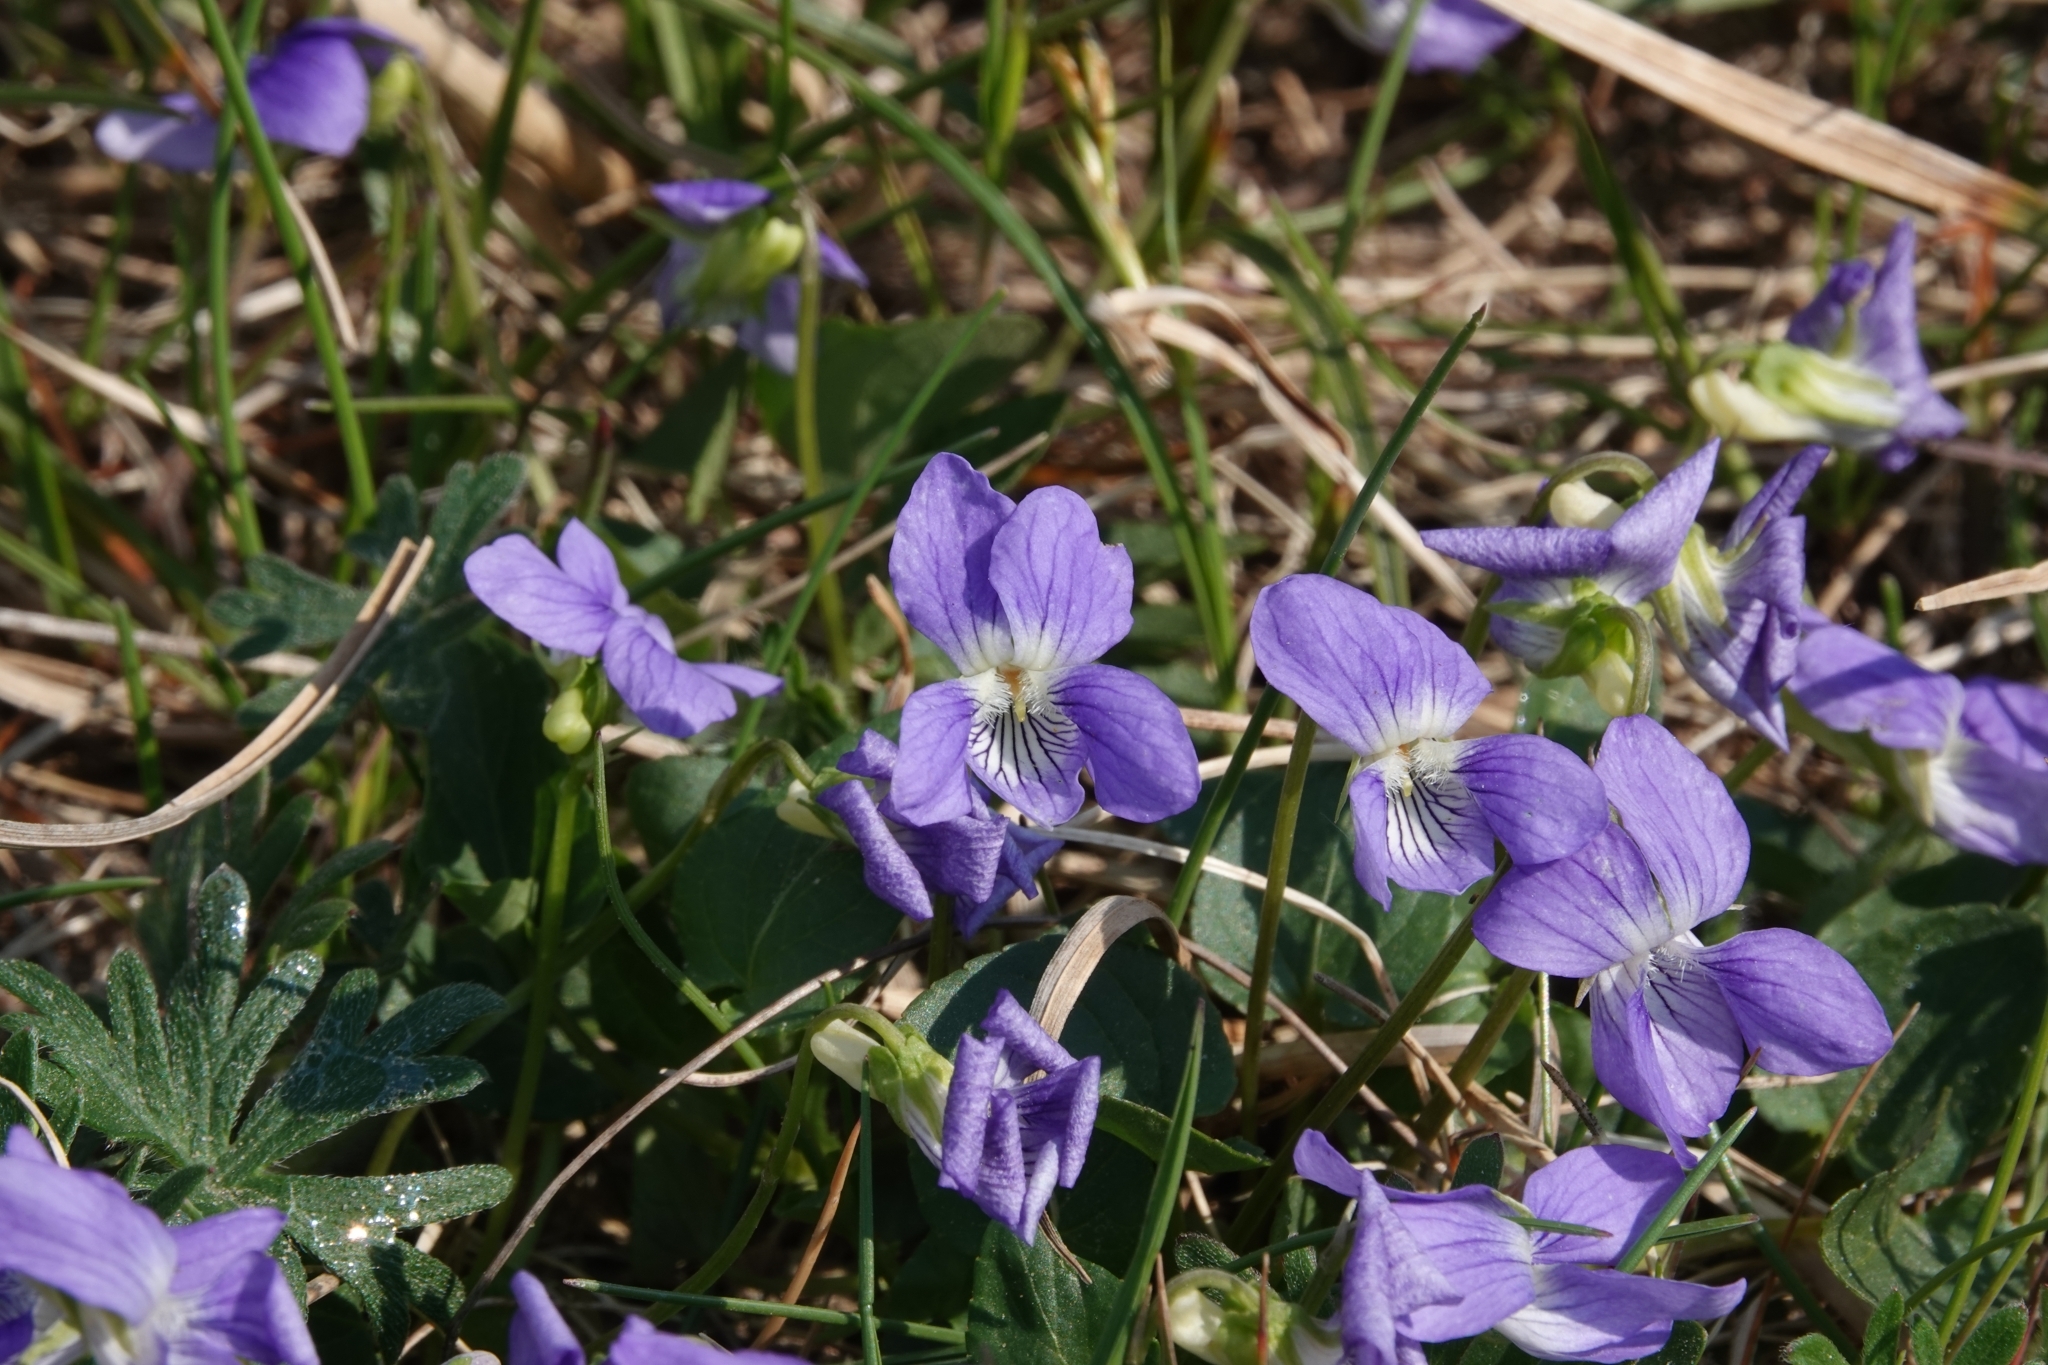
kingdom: Plantae
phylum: Tracheophyta
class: Magnoliopsida
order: Malpighiales
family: Violaceae
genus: Viola
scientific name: Viola canina
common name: Heath dog-violet
